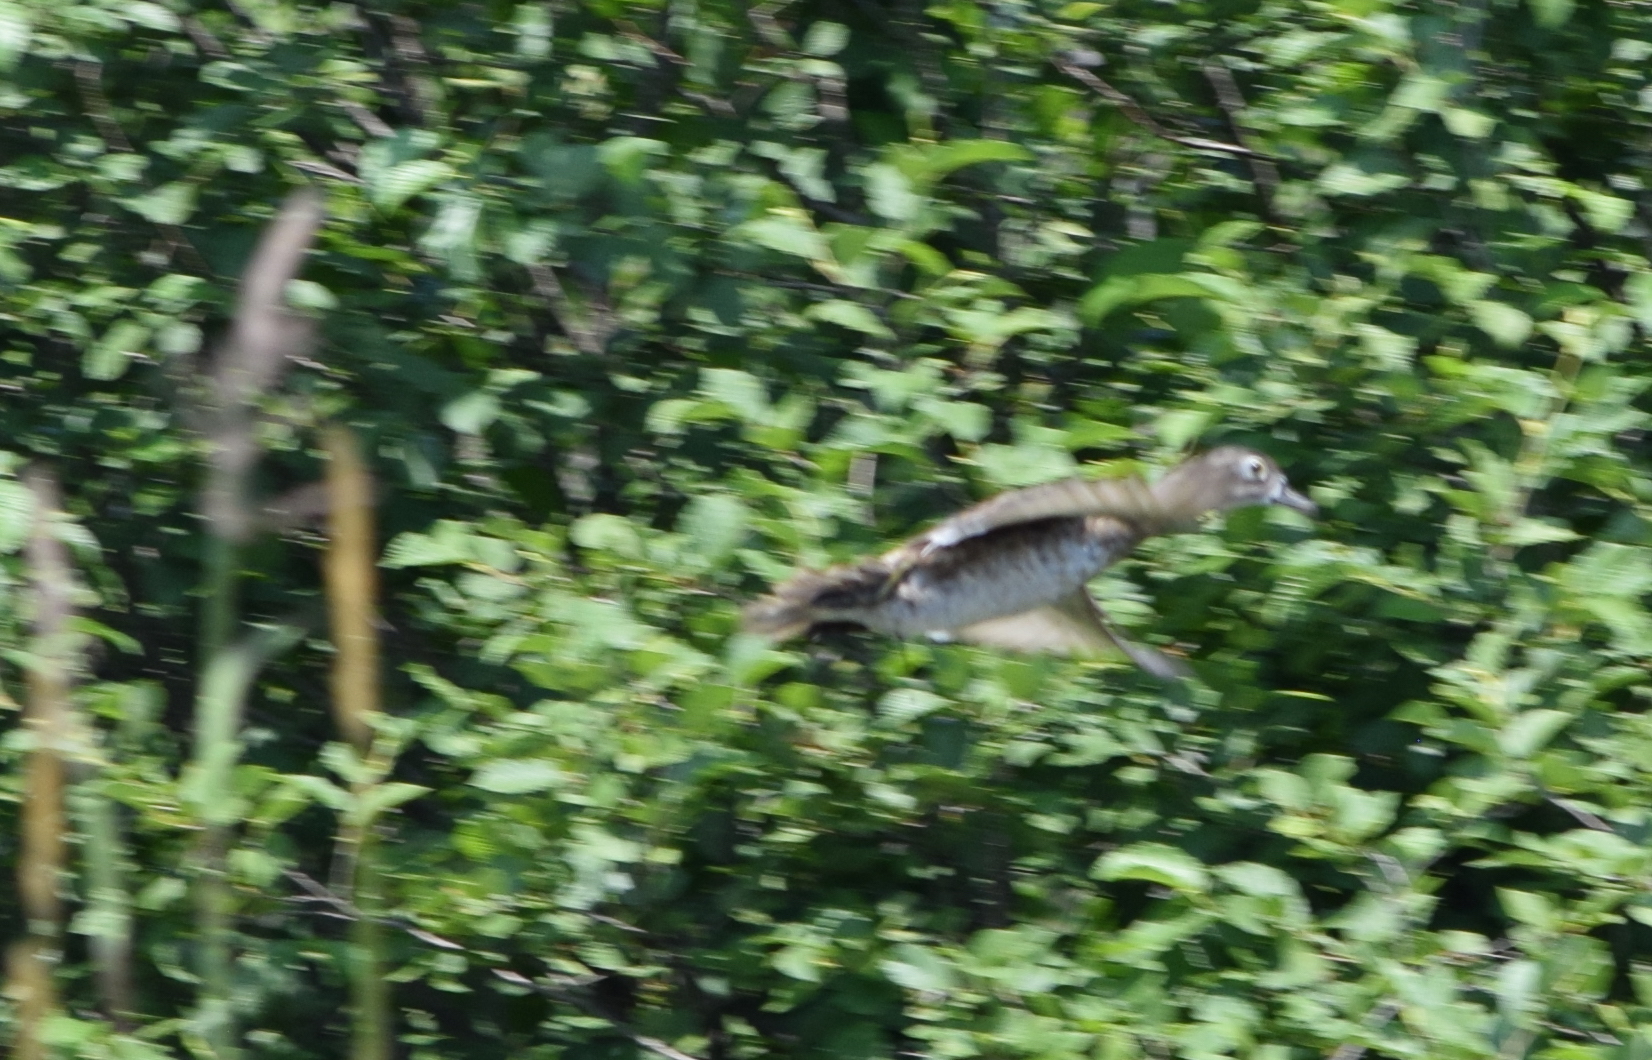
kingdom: Animalia
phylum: Chordata
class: Aves
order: Anseriformes
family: Anatidae
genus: Aix
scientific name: Aix sponsa
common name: Wood duck
